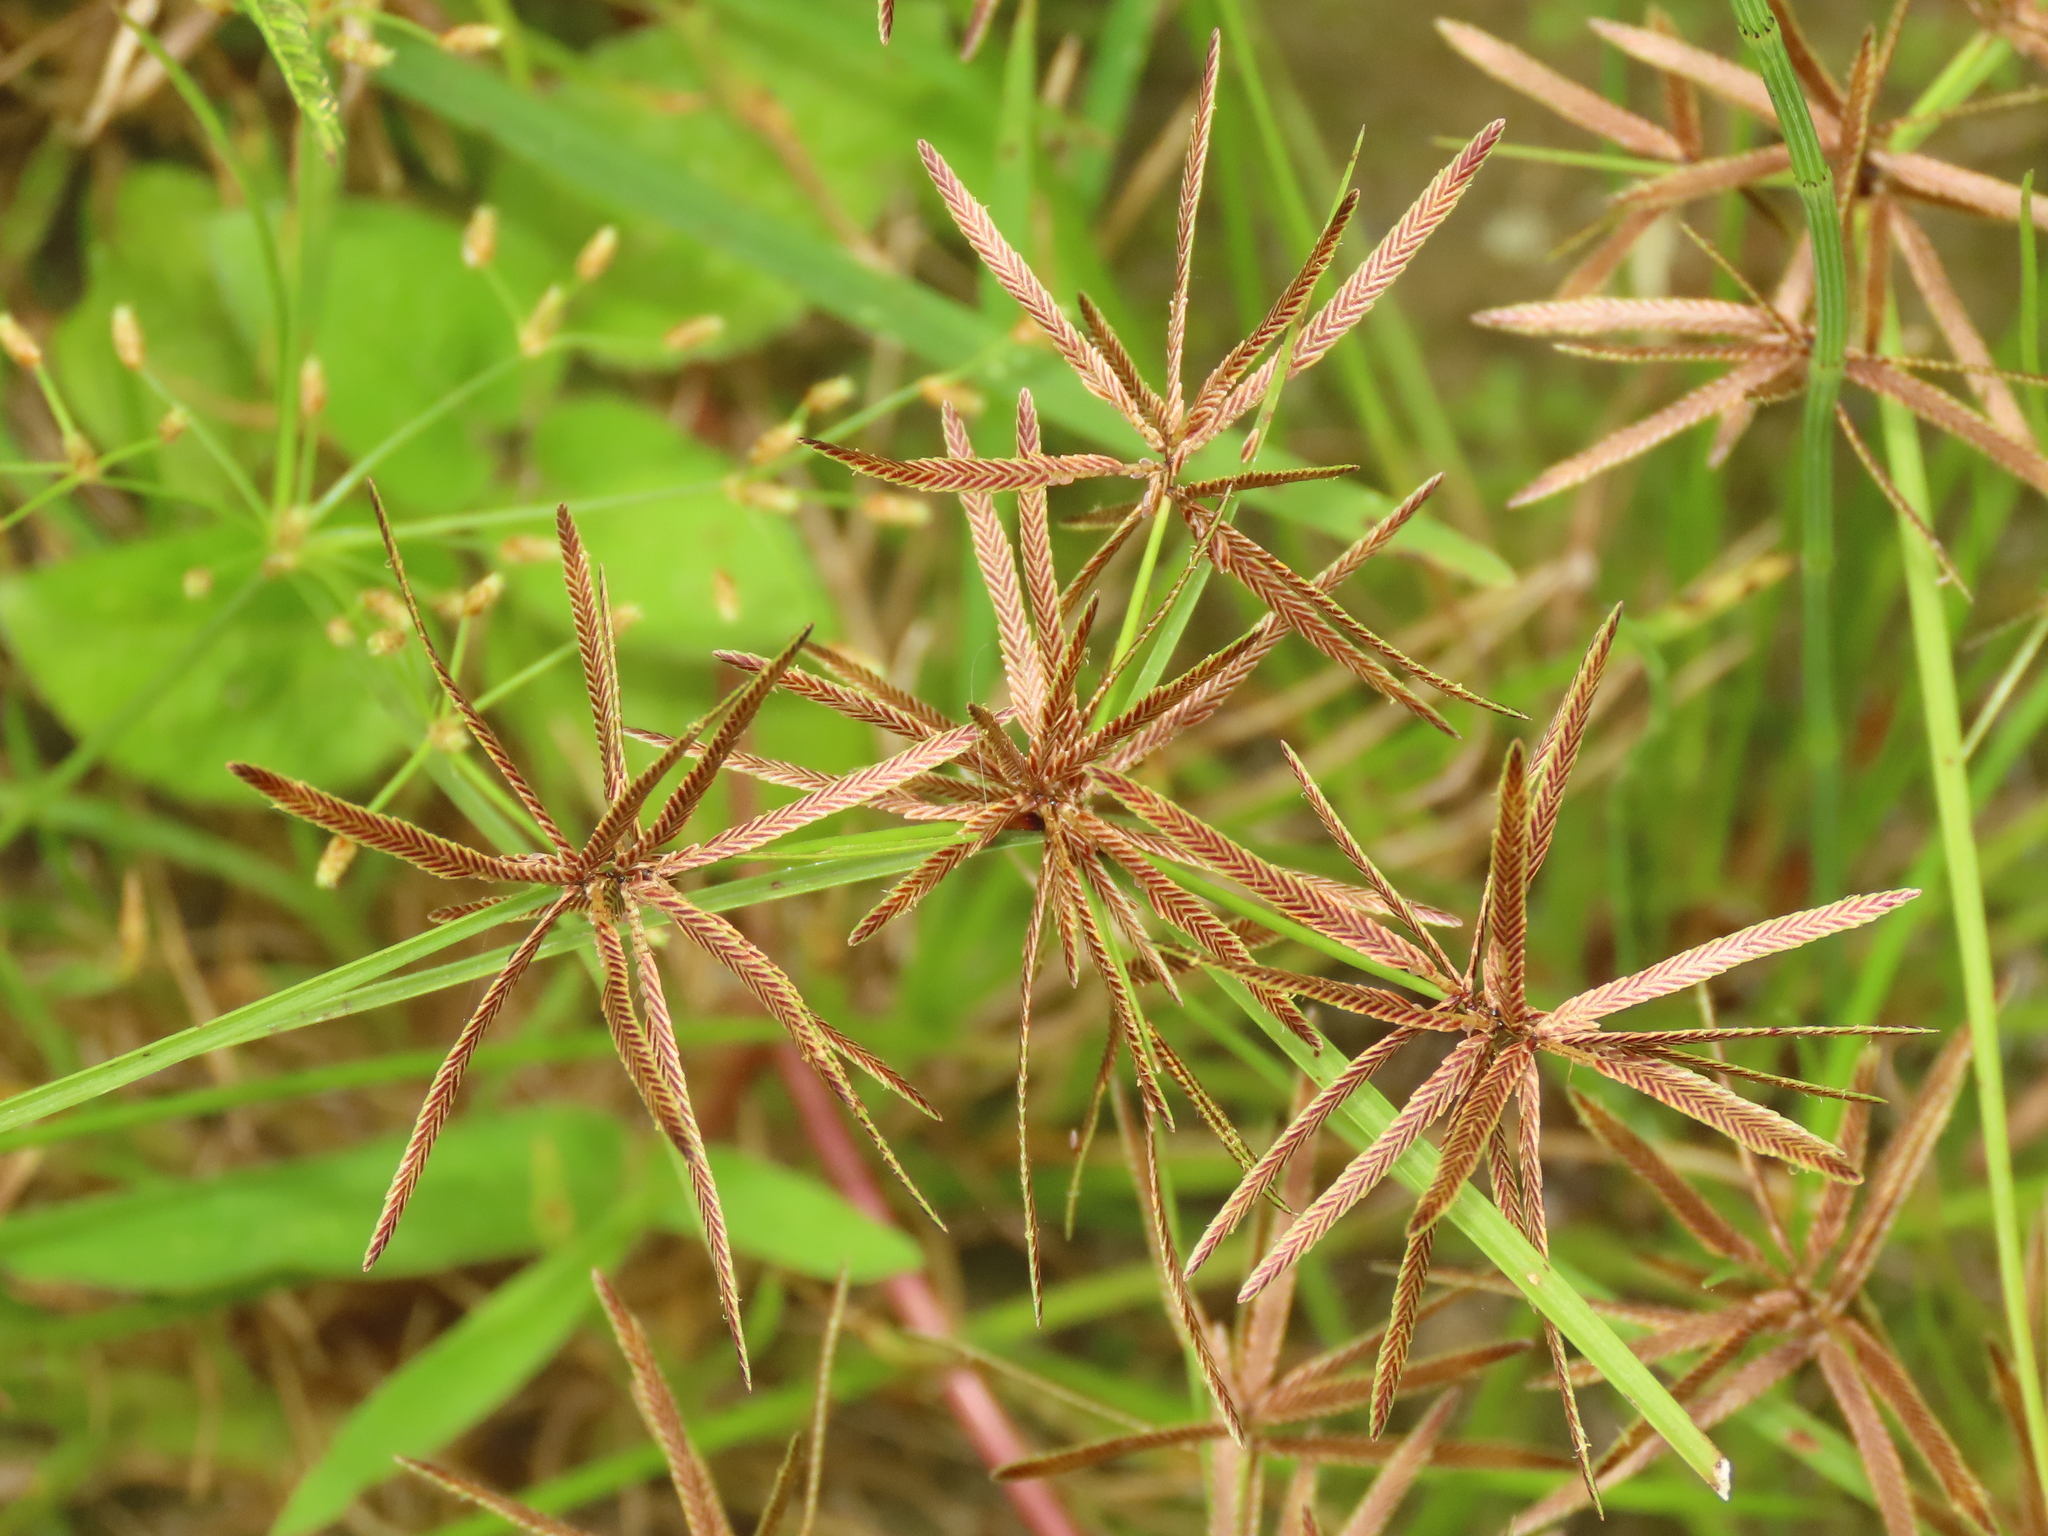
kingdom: Plantae
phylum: Tracheophyta
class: Liliopsida
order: Poales
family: Cyperaceae
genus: Cyperus
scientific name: Cyperus flavidus
